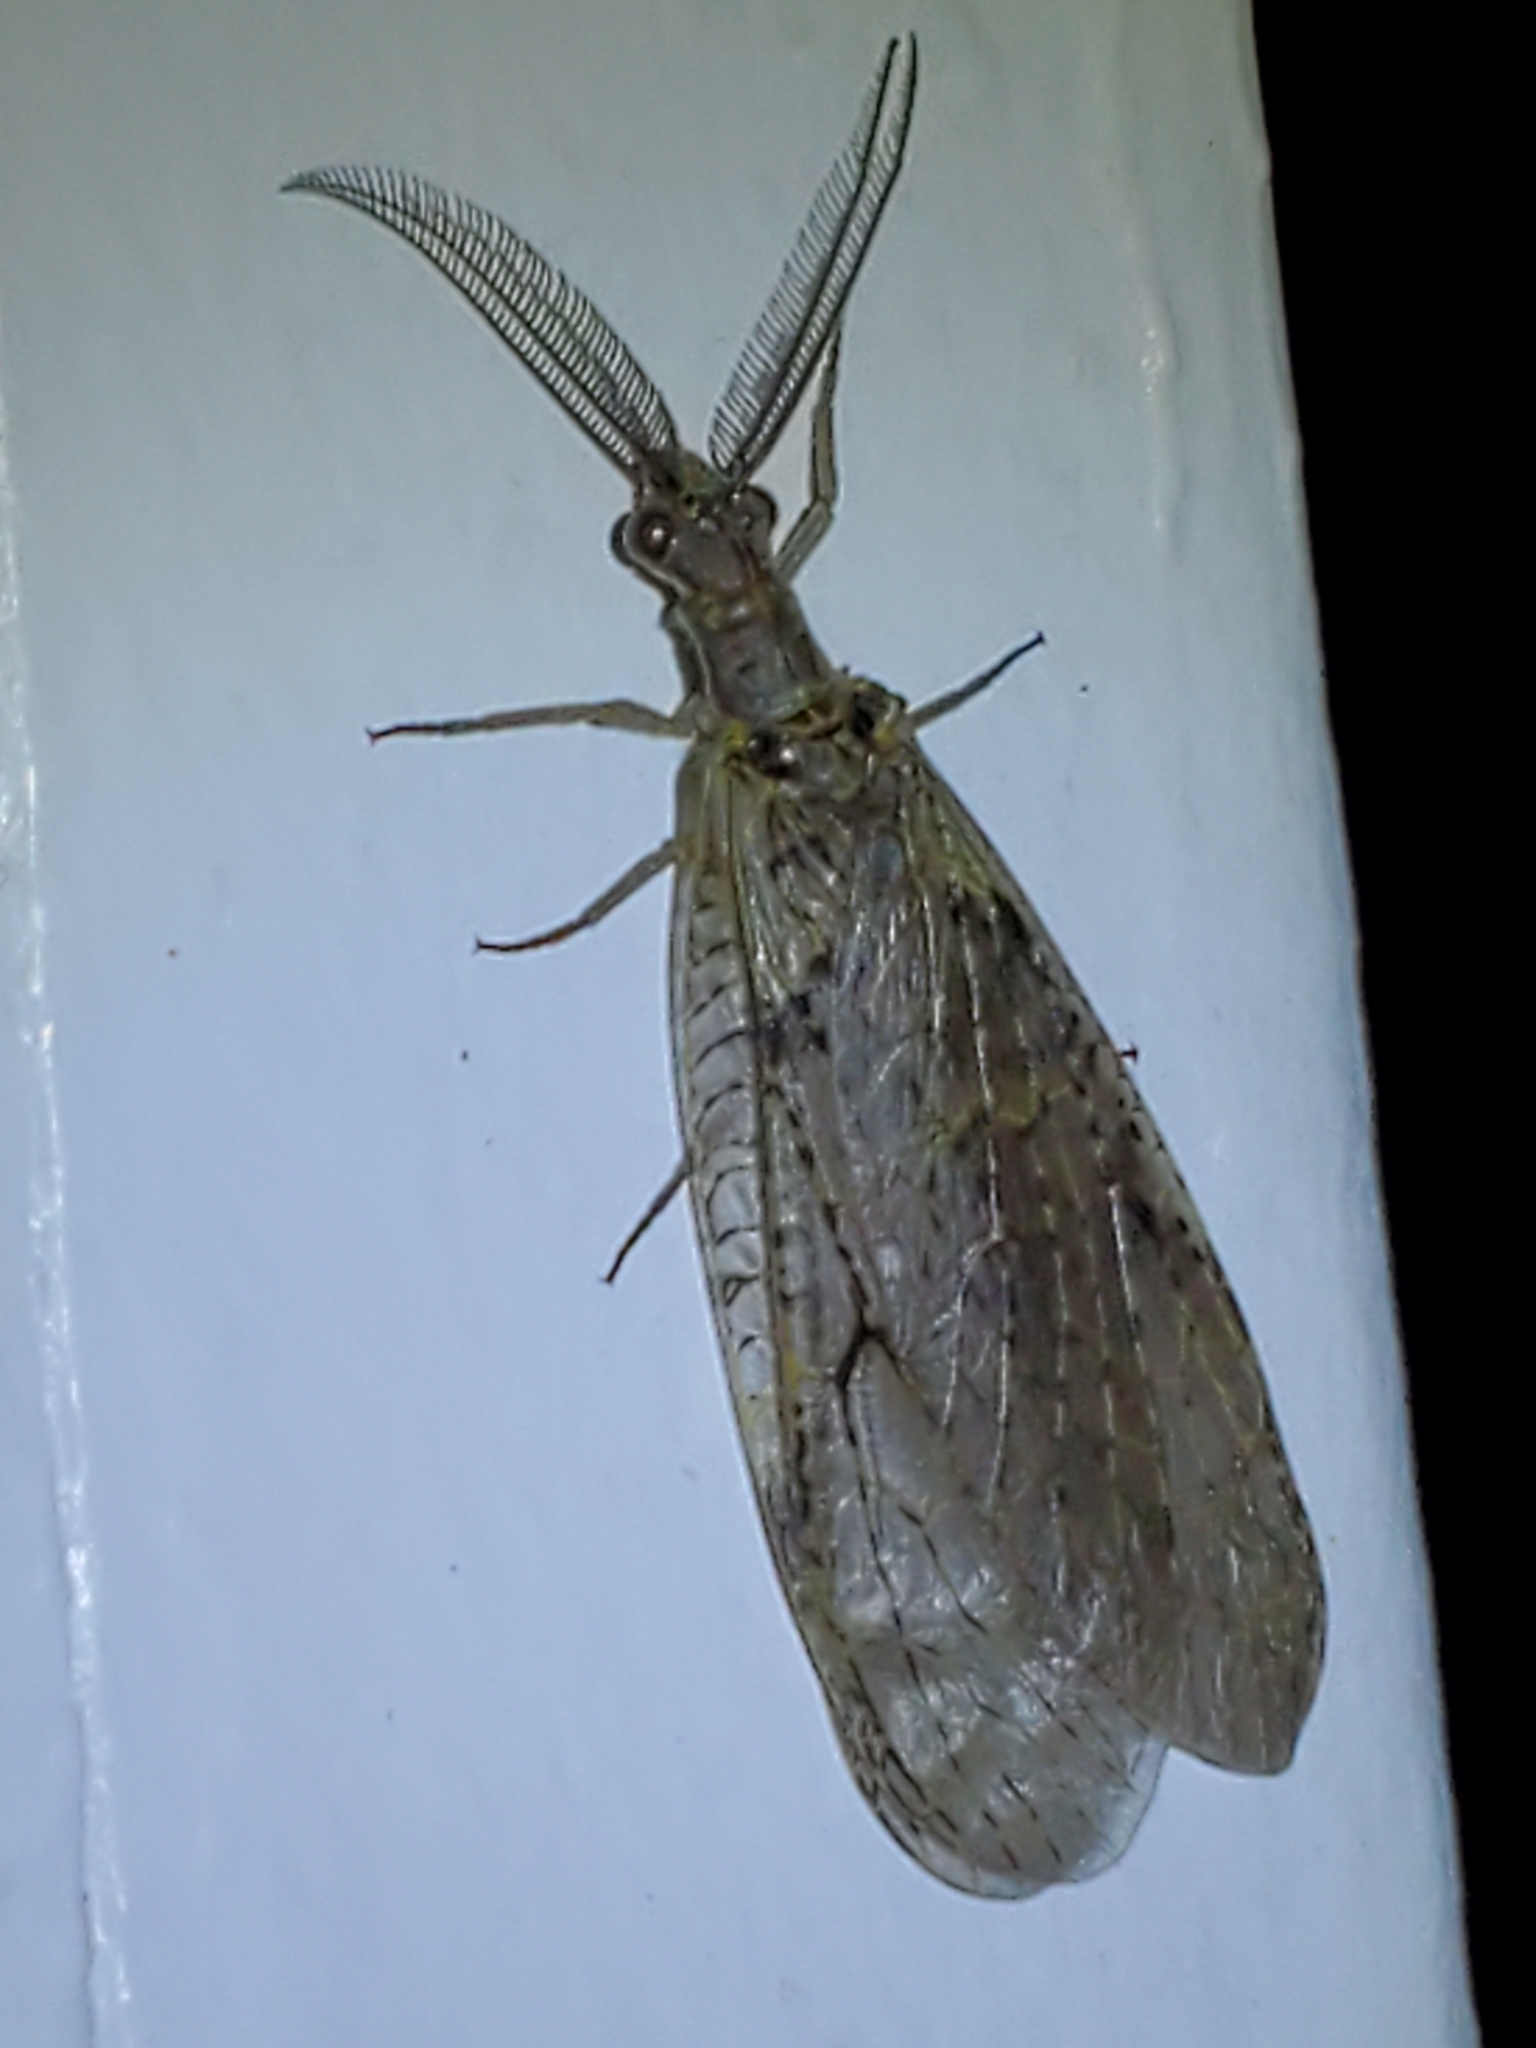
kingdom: Animalia
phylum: Arthropoda
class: Insecta
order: Megaloptera
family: Corydalidae
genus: Chauliodes
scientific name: Chauliodes rastricornis
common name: Spring fishfly
